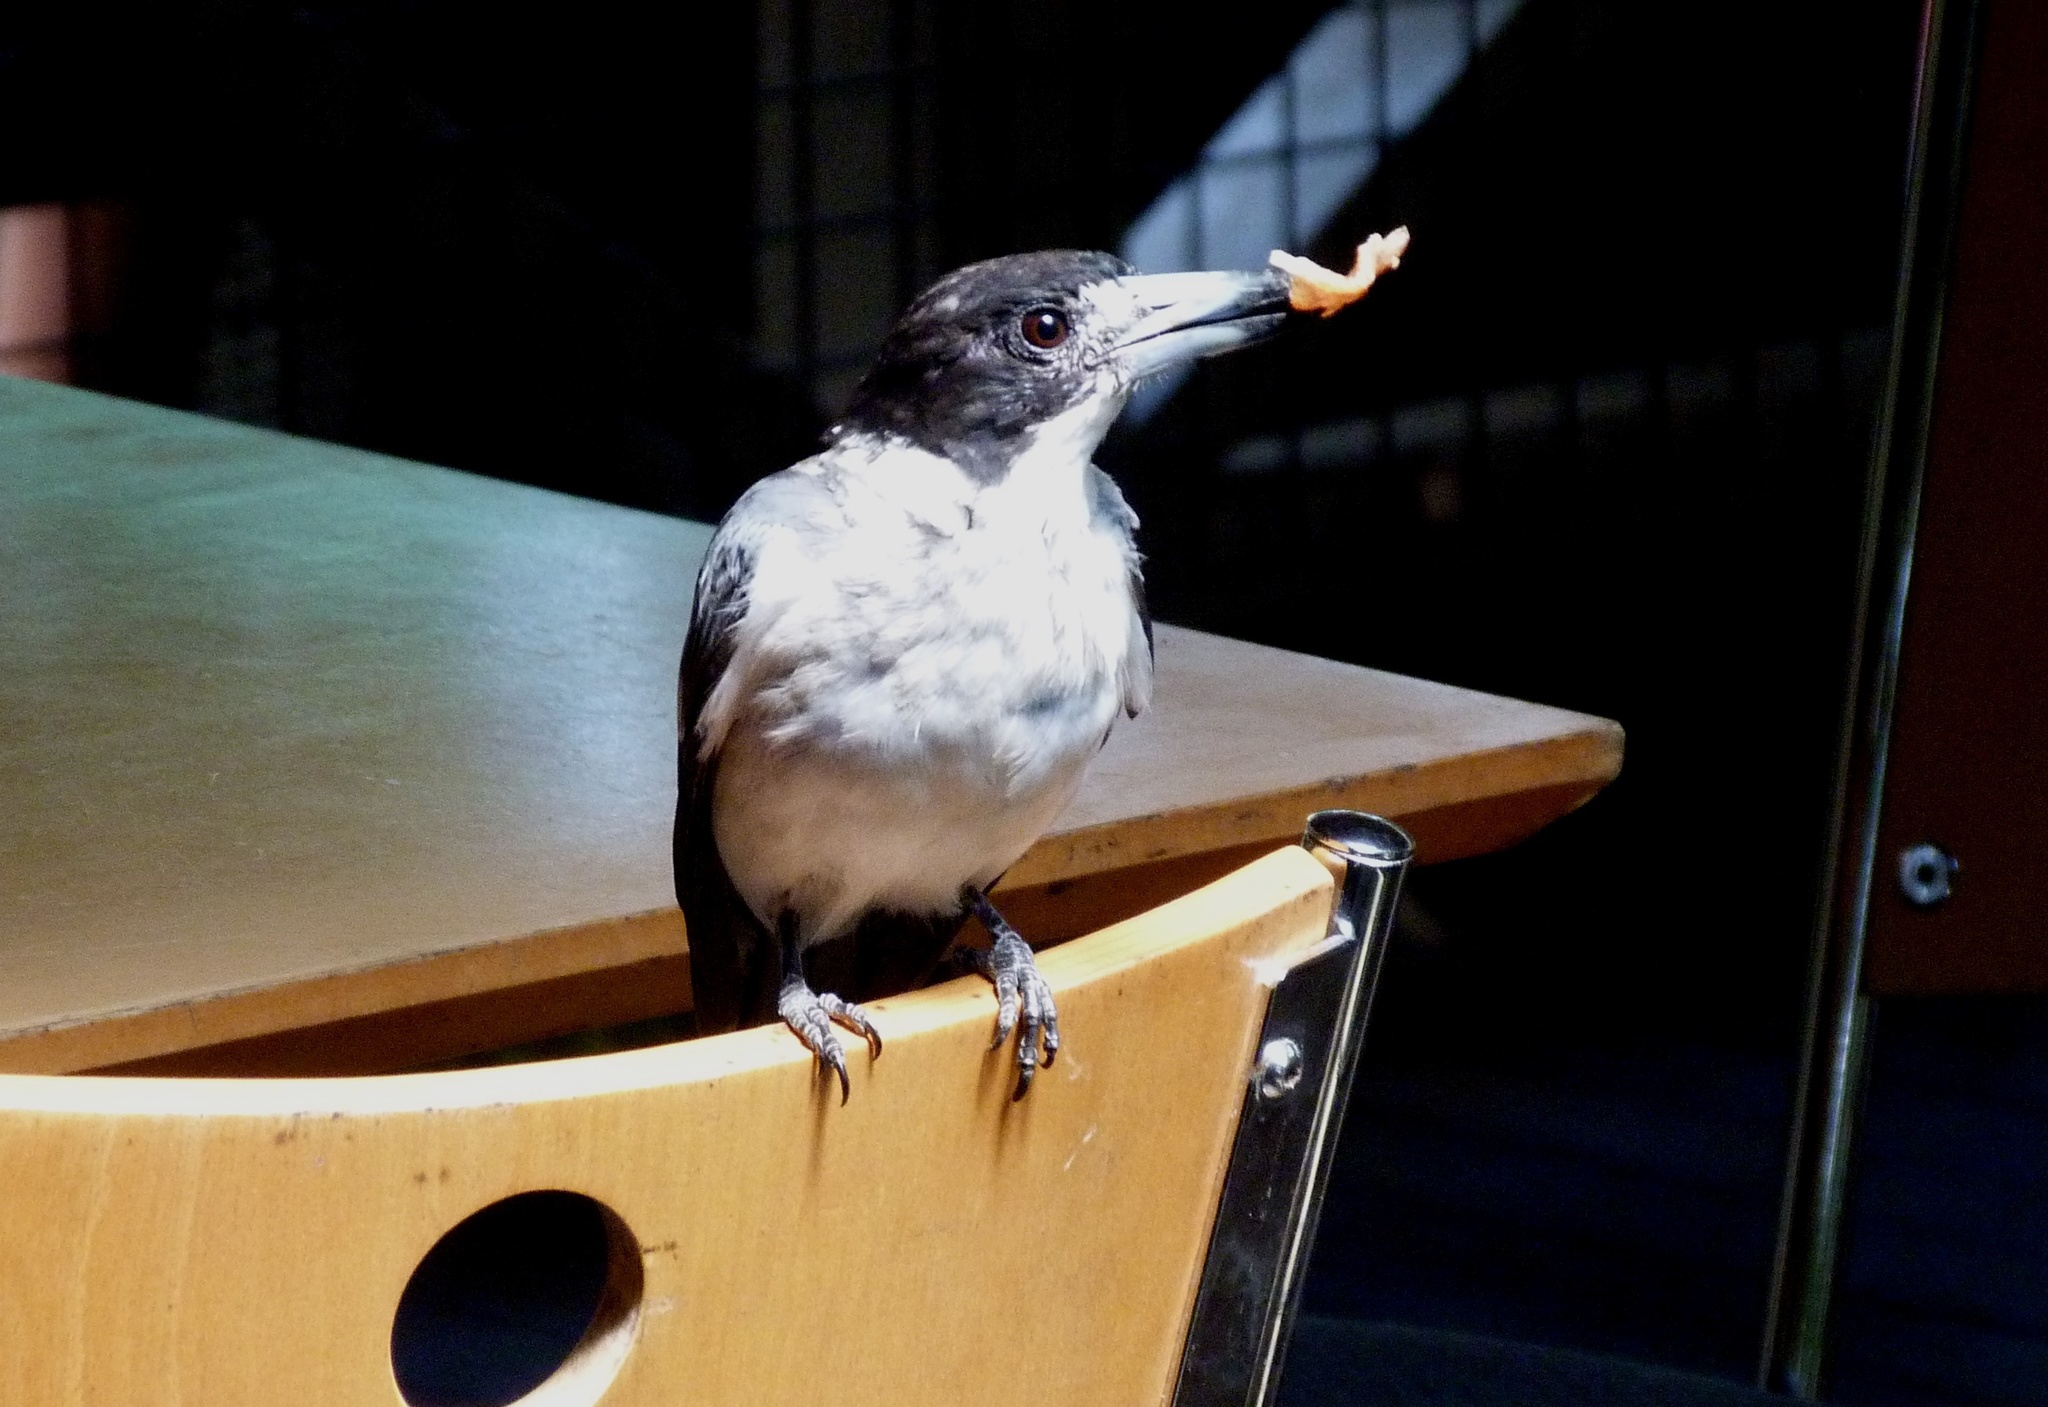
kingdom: Animalia
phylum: Chordata
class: Aves
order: Passeriformes
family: Cracticidae
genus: Cracticus
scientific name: Cracticus torquatus
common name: Grey butcherbird
